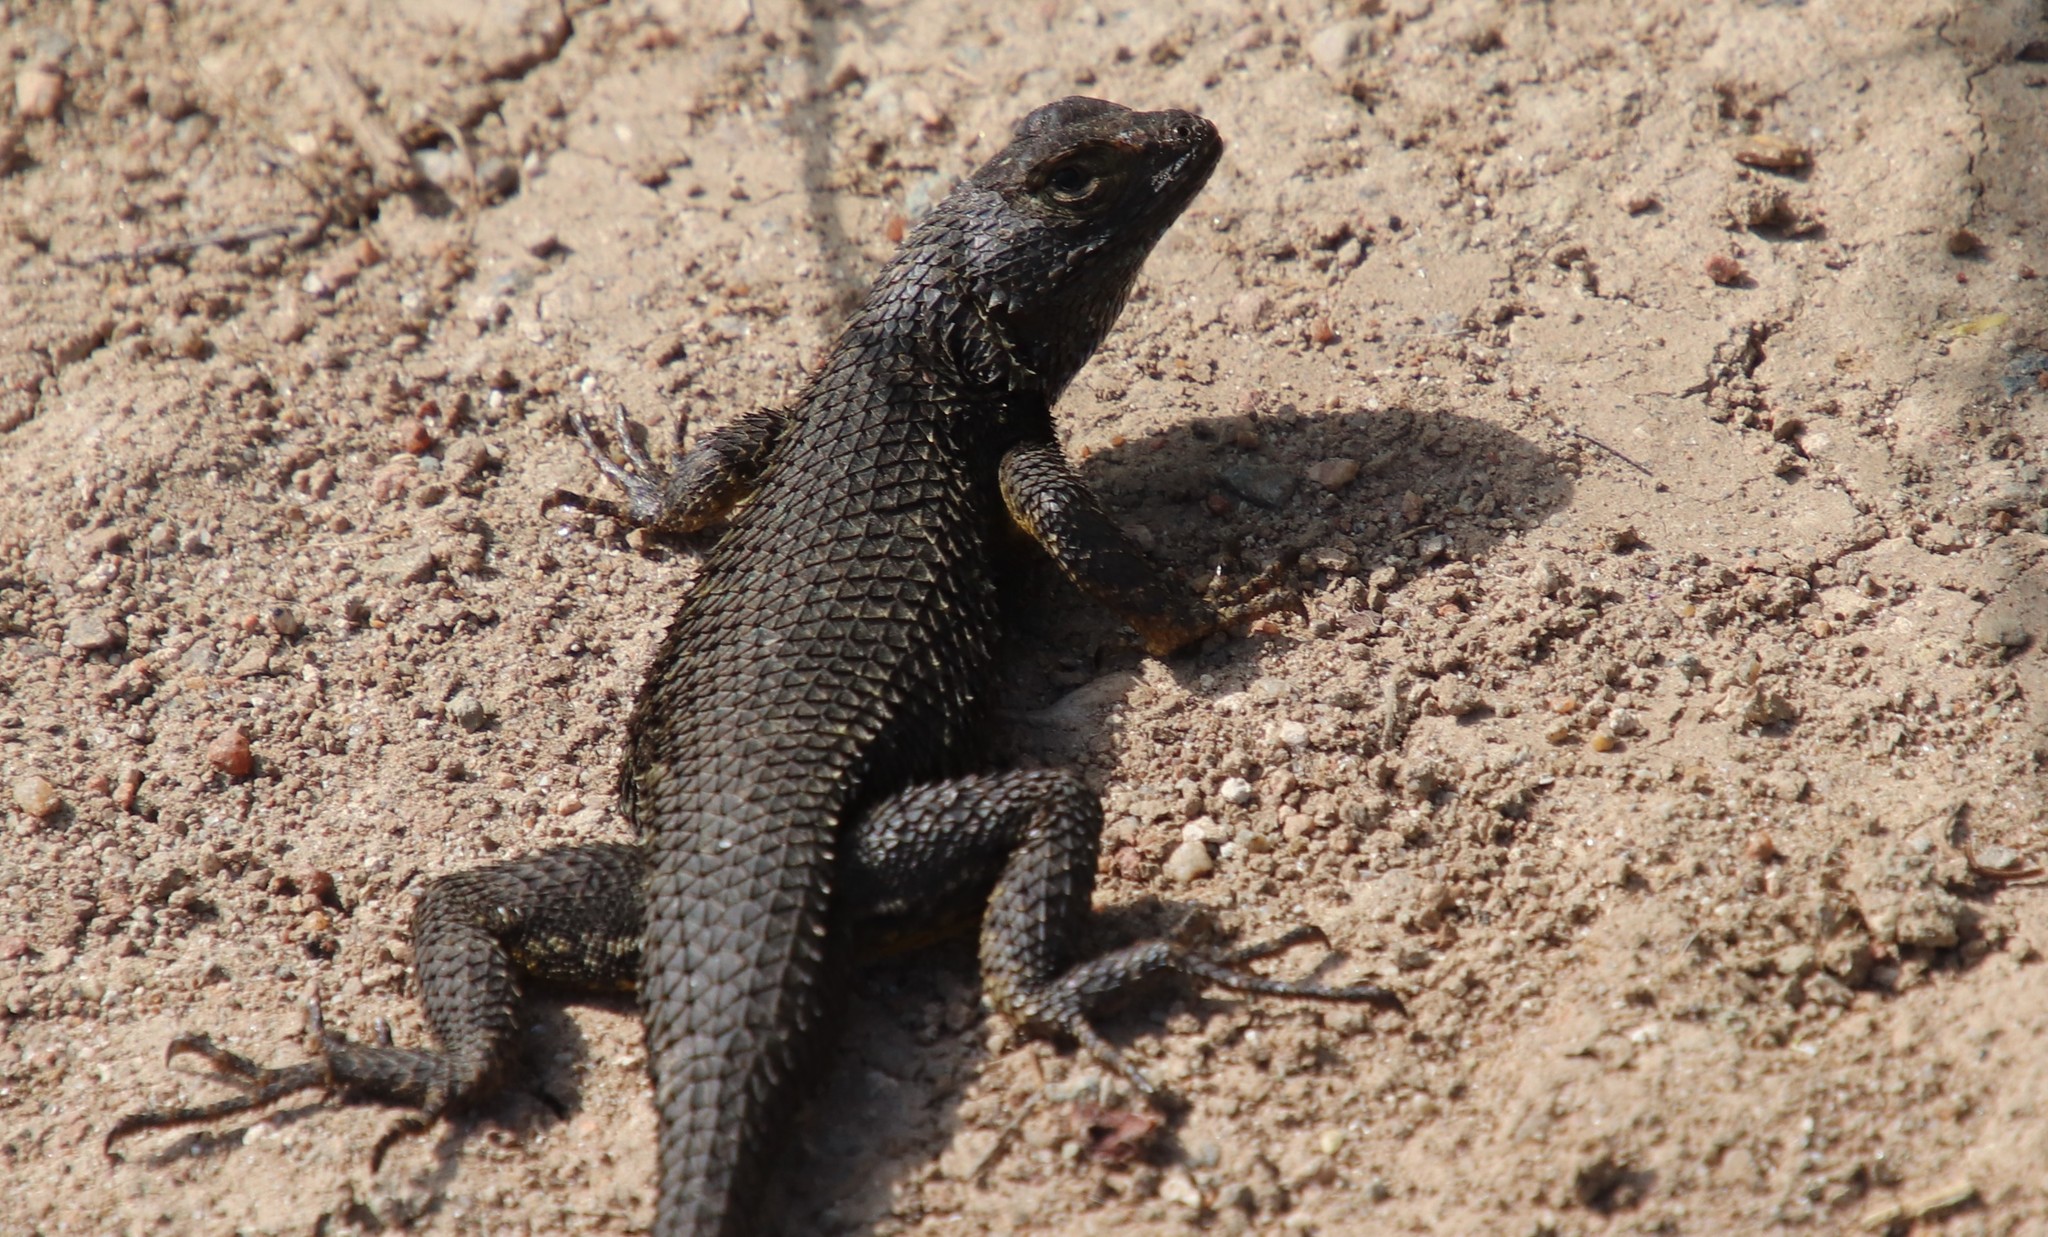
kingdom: Animalia
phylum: Chordata
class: Squamata
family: Phrynosomatidae
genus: Sceloporus
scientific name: Sceloporus occidentalis
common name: Western fence lizard
